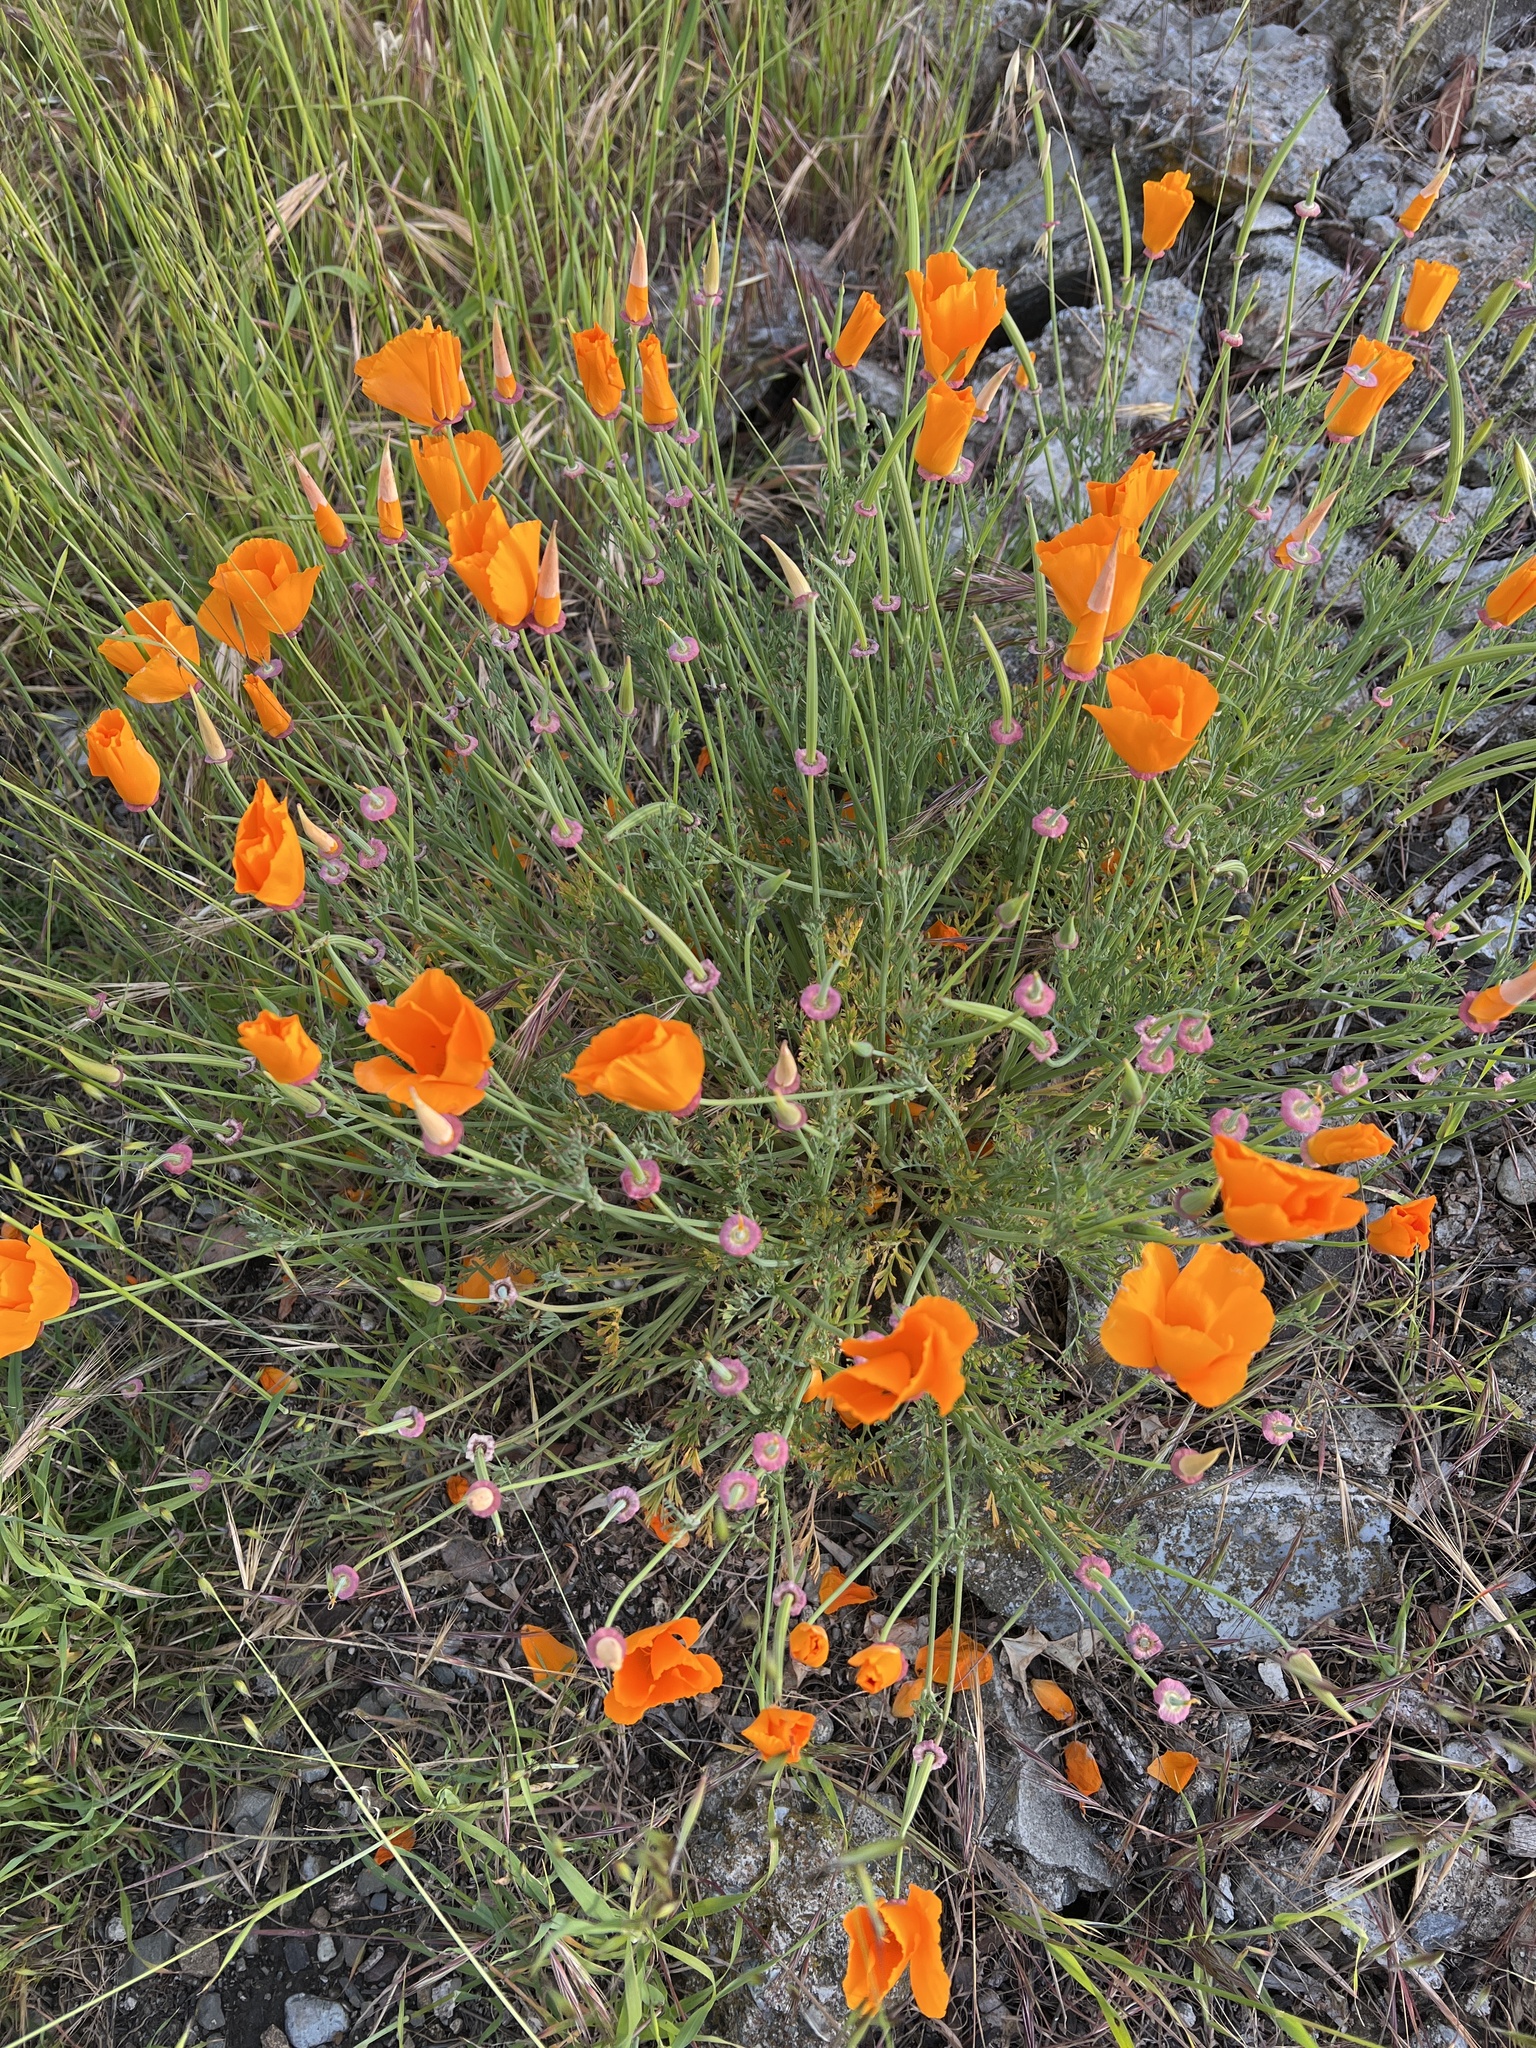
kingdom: Plantae
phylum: Tracheophyta
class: Magnoliopsida
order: Ranunculales
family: Papaveraceae
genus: Eschscholzia
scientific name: Eschscholzia californica
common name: California poppy
